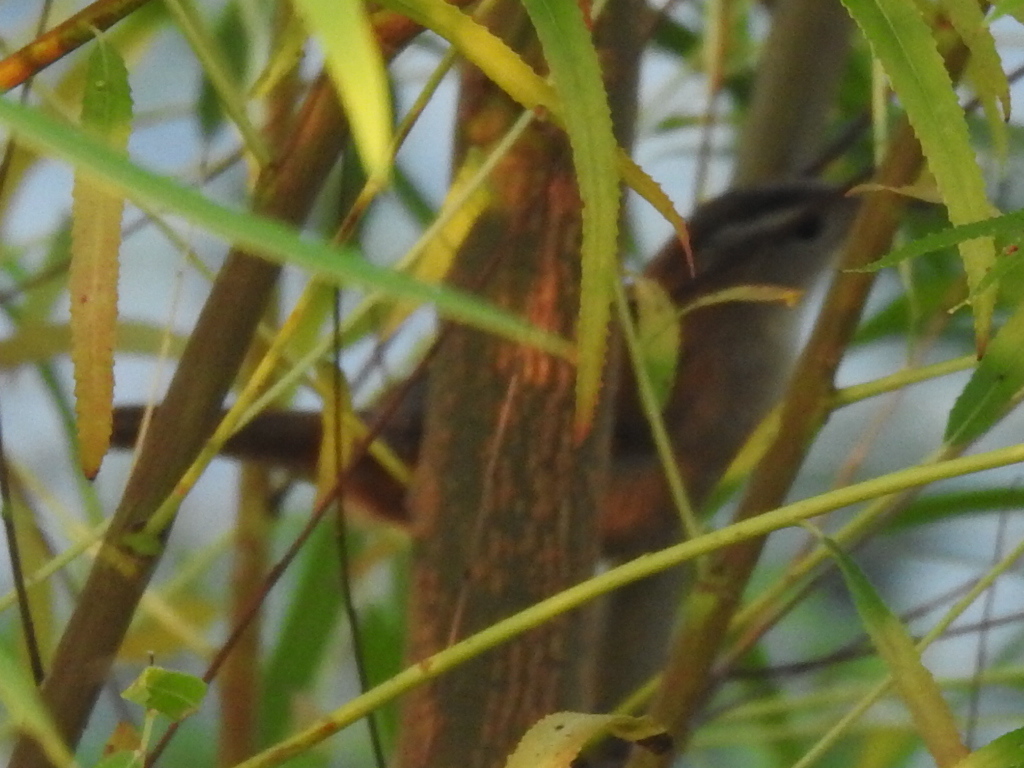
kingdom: Animalia
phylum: Chordata
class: Aves
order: Passeriformes
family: Troglodytidae
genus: Cistothorus
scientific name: Cistothorus palustris
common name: Marsh wren
